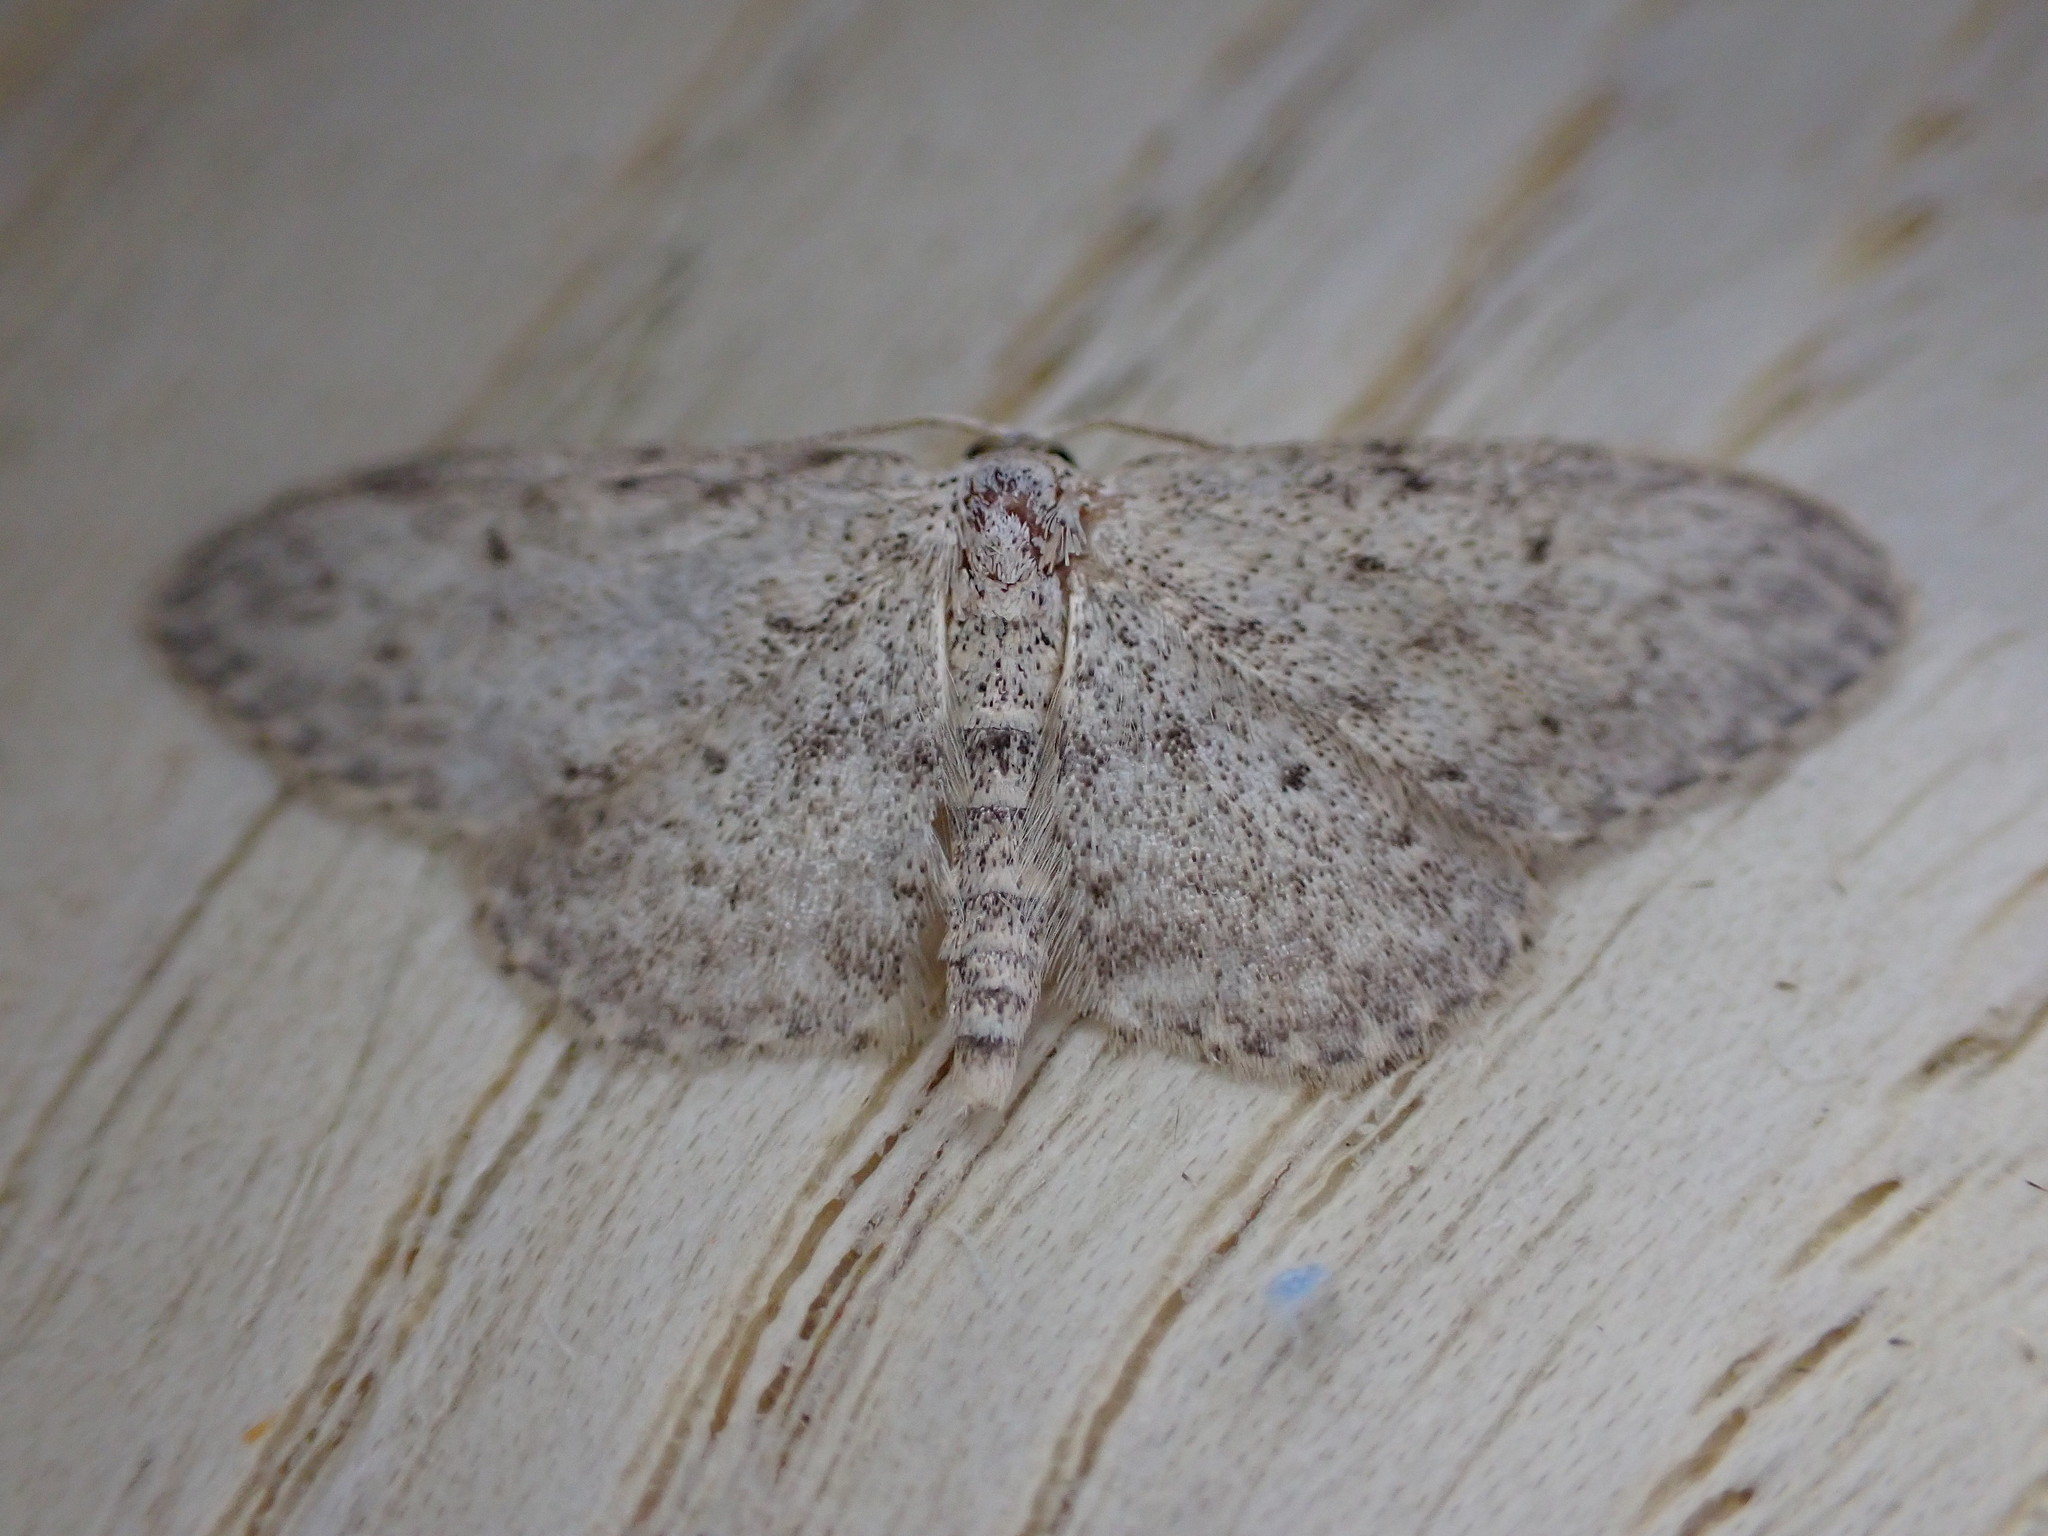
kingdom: Animalia
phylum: Arthropoda
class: Insecta
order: Lepidoptera
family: Geometridae
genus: Idaea
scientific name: Idaea seriata
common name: Small dusty wave
